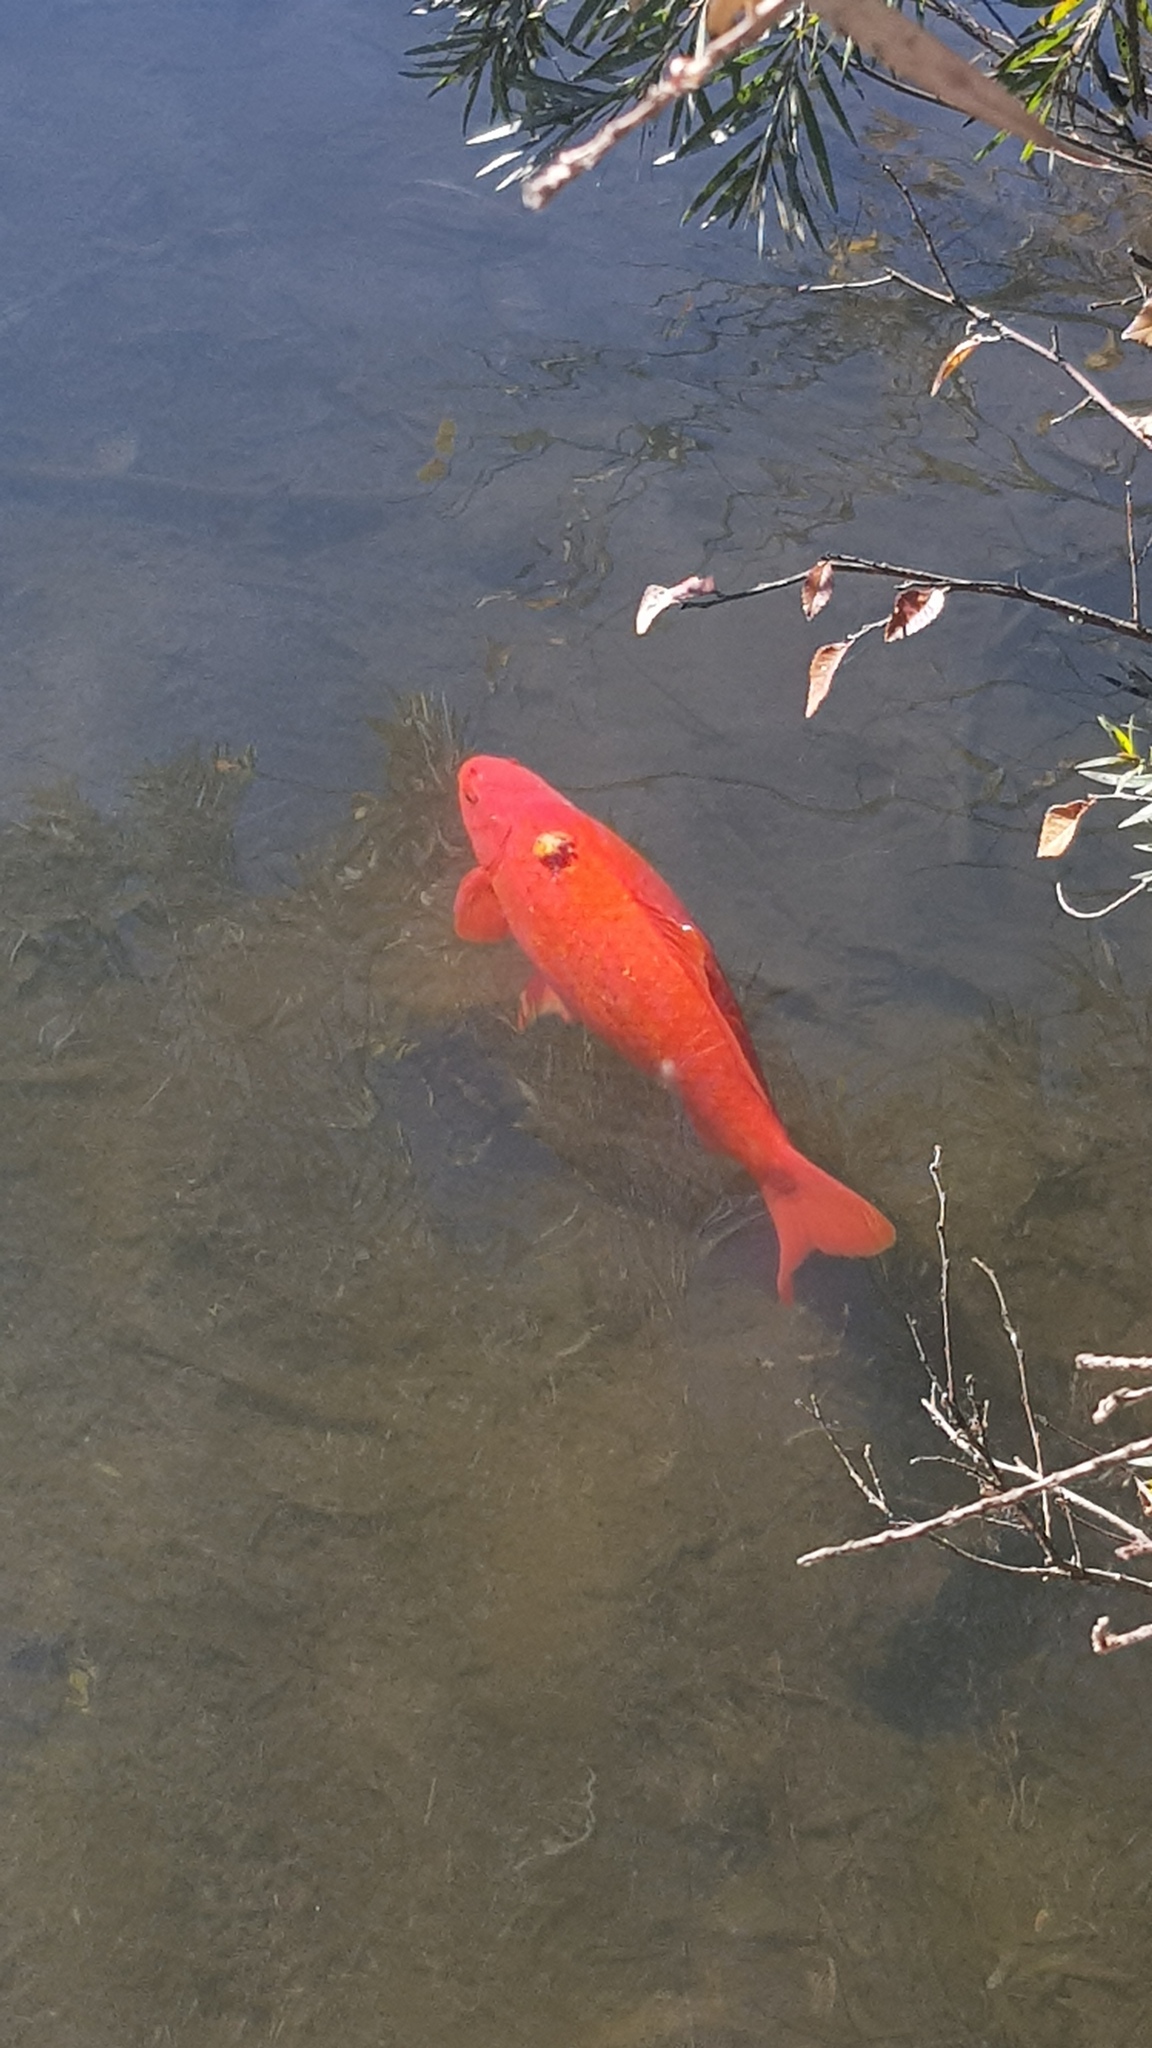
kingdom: Animalia
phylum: Chordata
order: Cypriniformes
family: Cyprinidae
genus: Cyprinus
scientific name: Cyprinus rubrofuscus
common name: Koi
